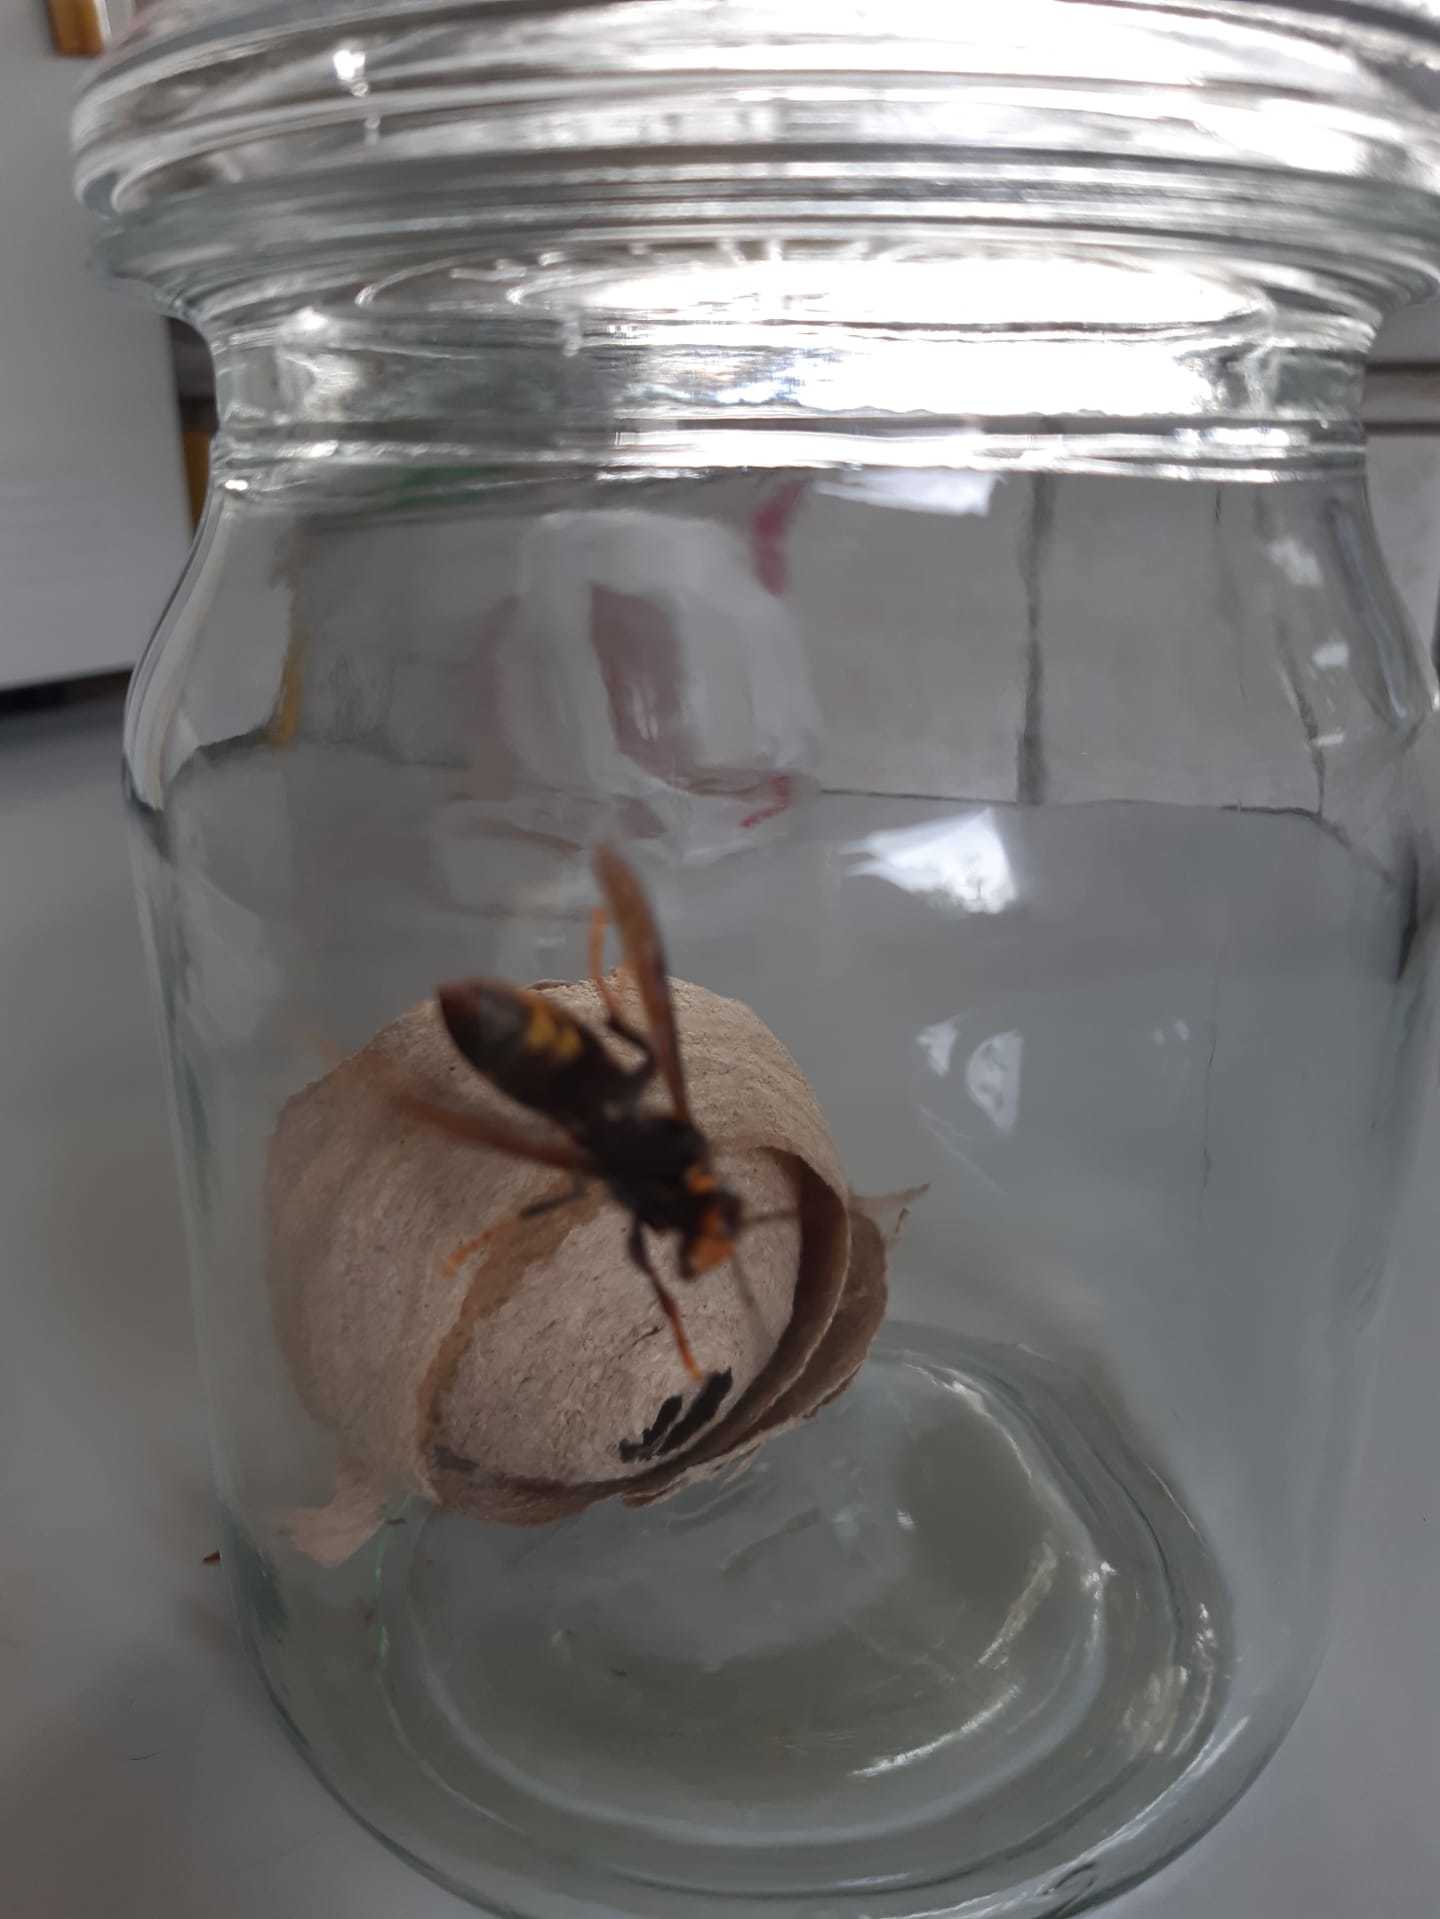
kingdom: Animalia
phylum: Arthropoda
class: Insecta
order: Hymenoptera
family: Vespidae
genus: Vespa
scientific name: Vespa velutina
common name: Asian hornet
